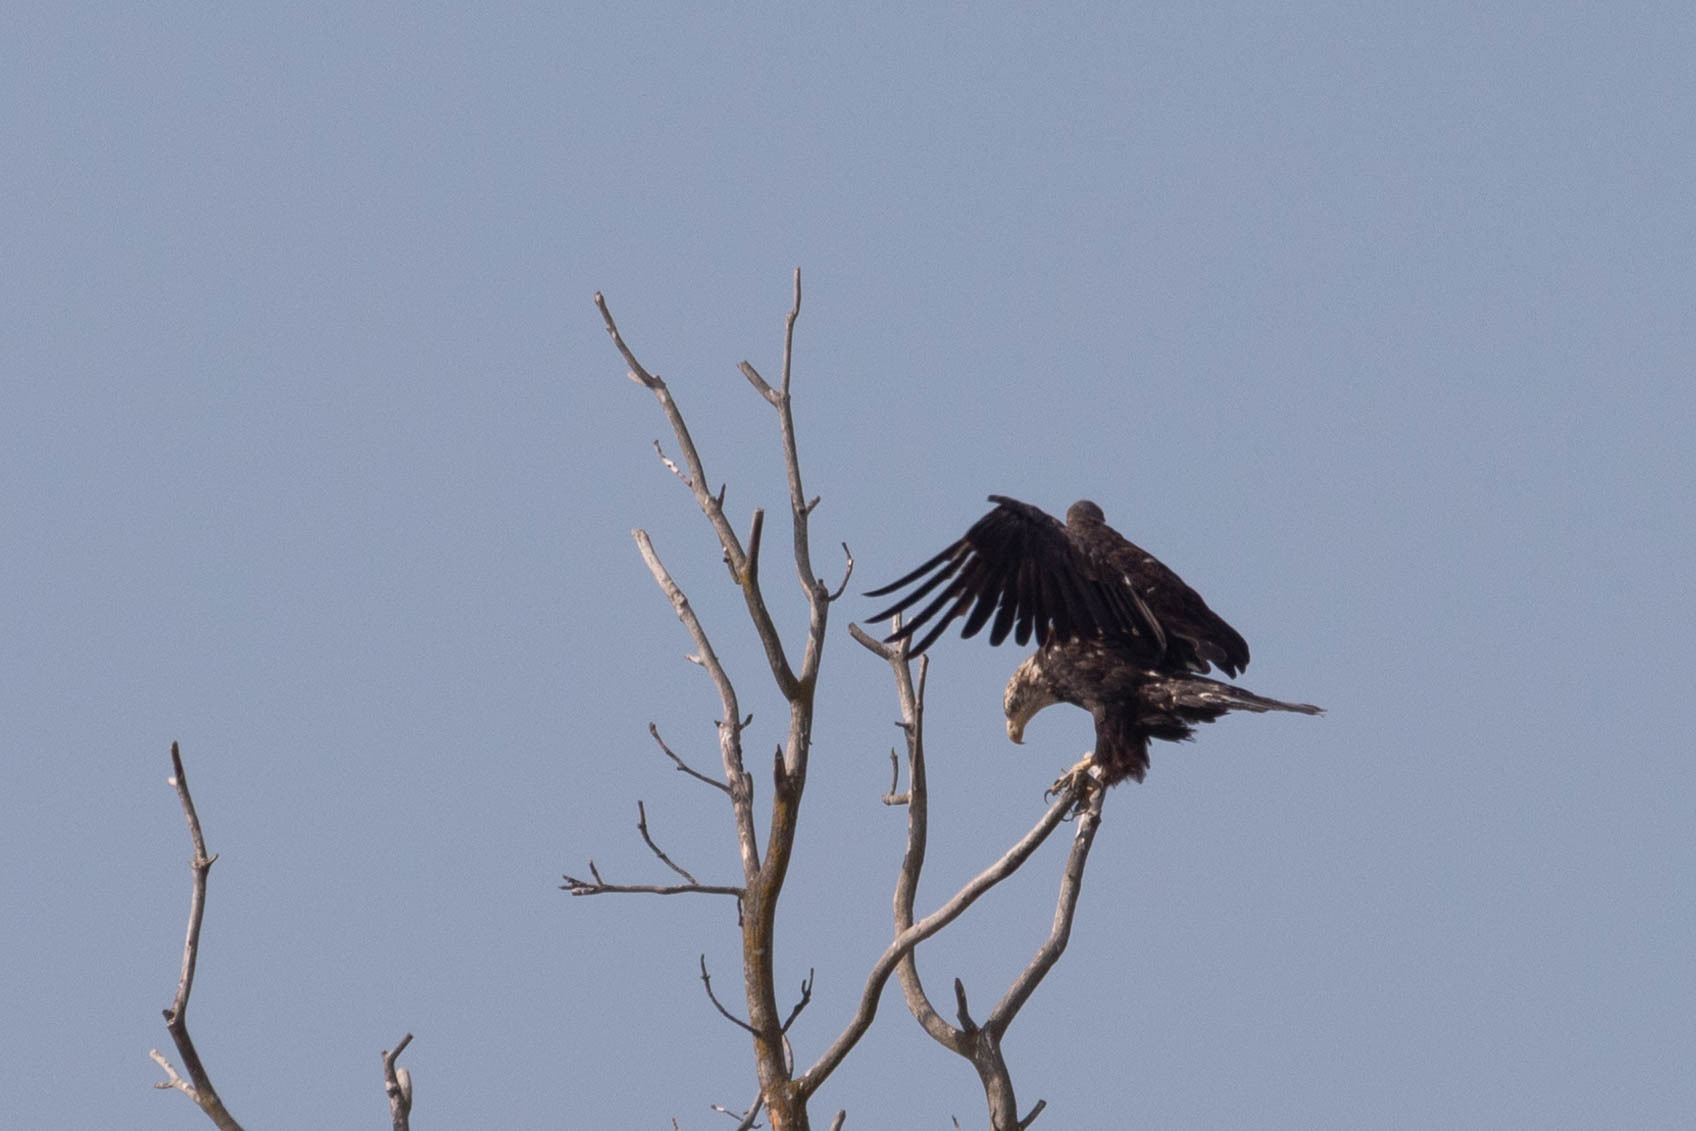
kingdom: Animalia
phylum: Chordata
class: Aves
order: Accipitriformes
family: Accipitridae
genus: Haliaeetus
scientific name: Haliaeetus leucocephalus
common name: Bald eagle
